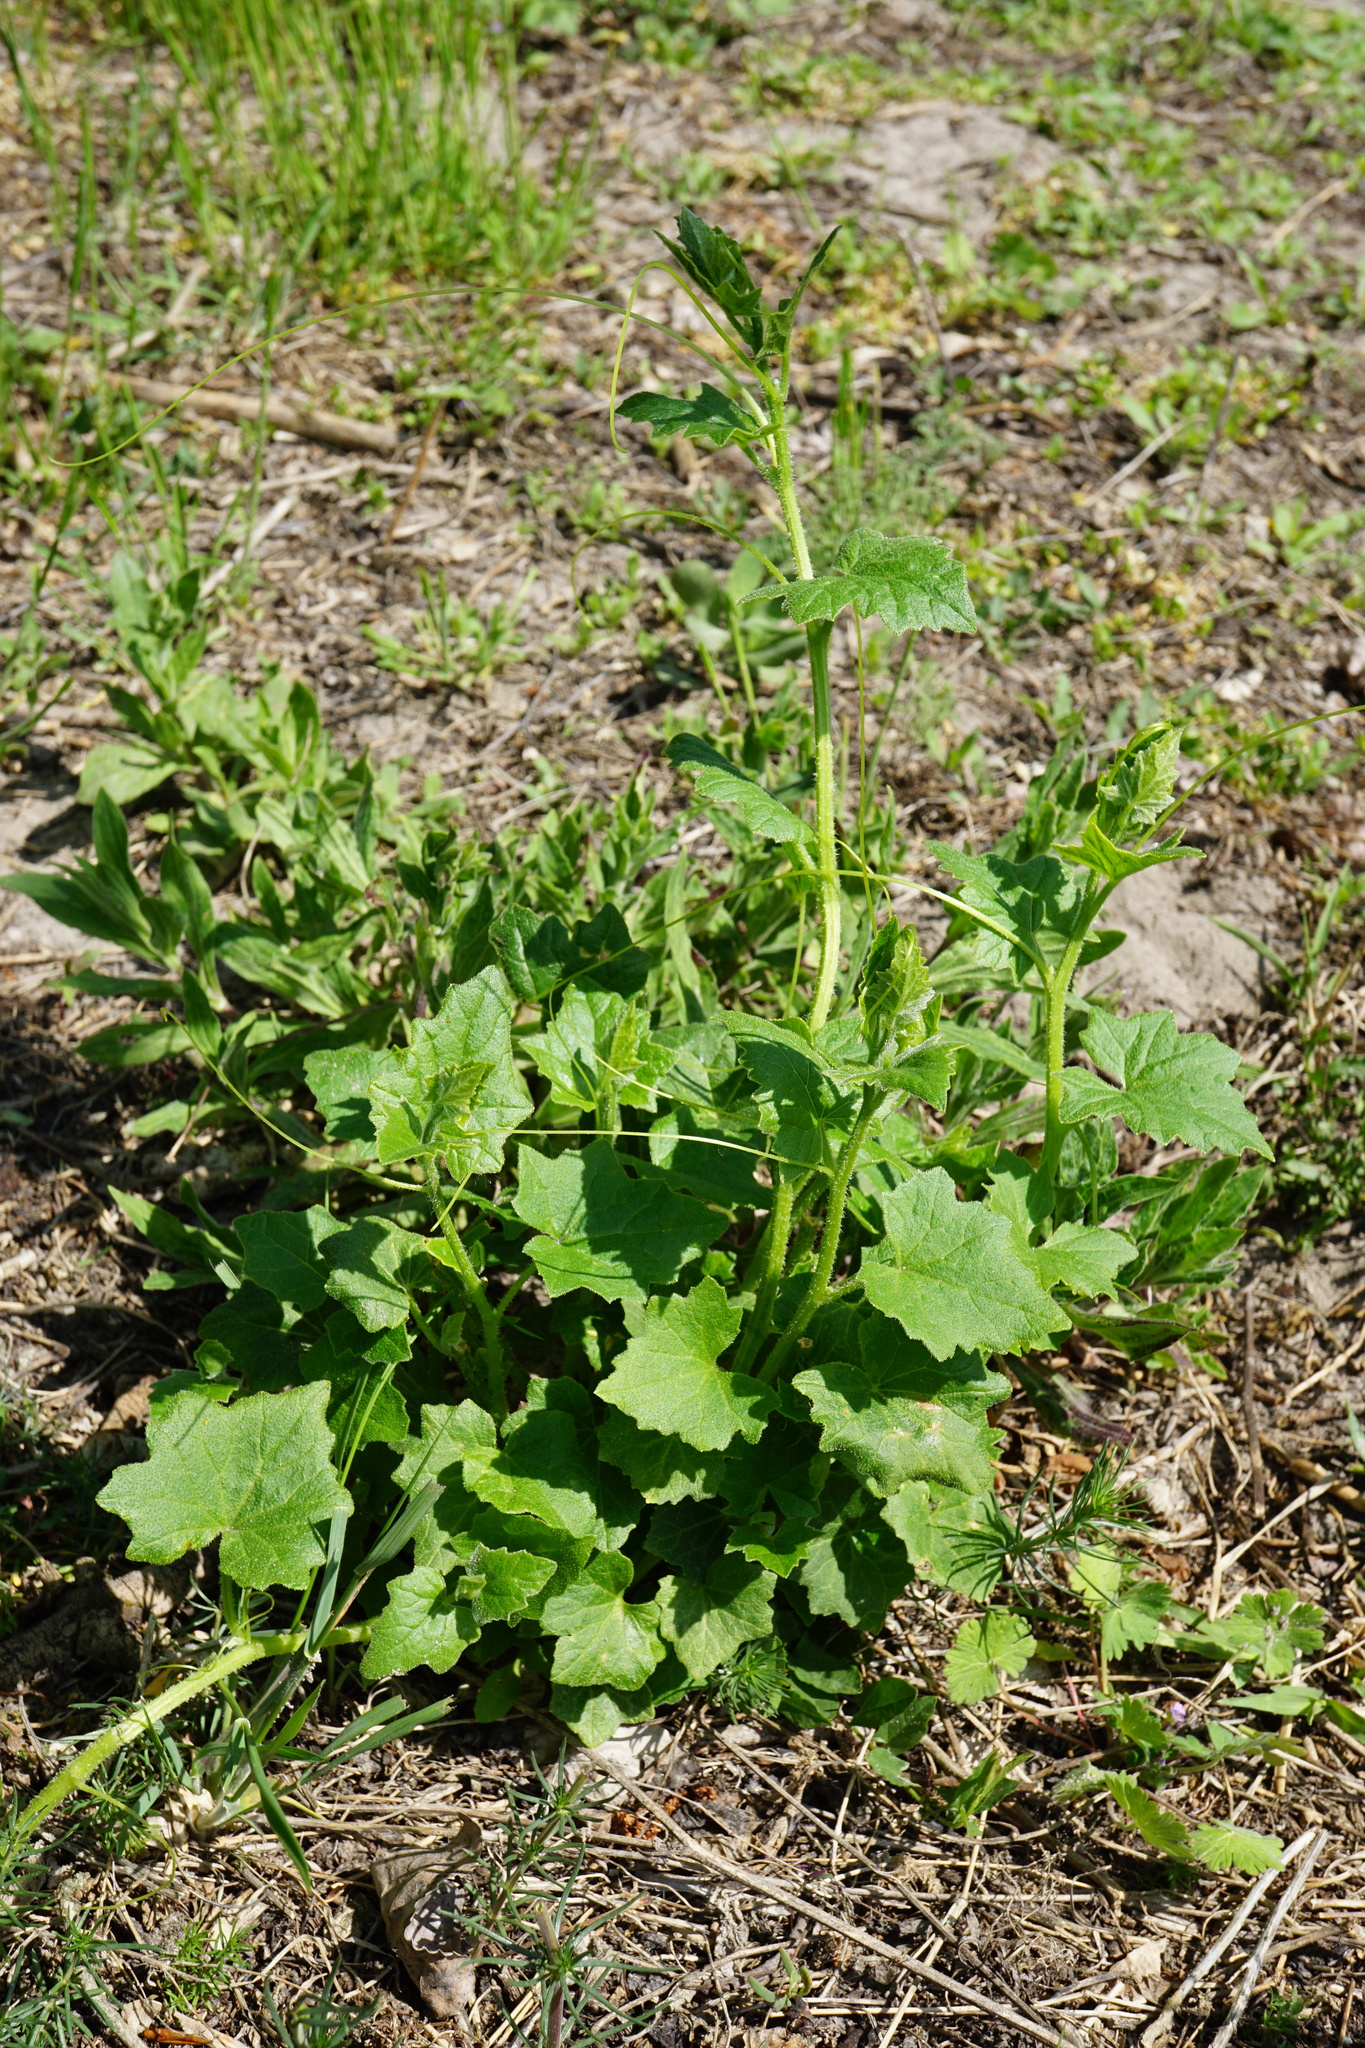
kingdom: Plantae
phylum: Tracheophyta
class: Magnoliopsida
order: Cucurbitales
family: Cucurbitaceae
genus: Bryonia
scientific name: Bryonia dioica
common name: White bryony
